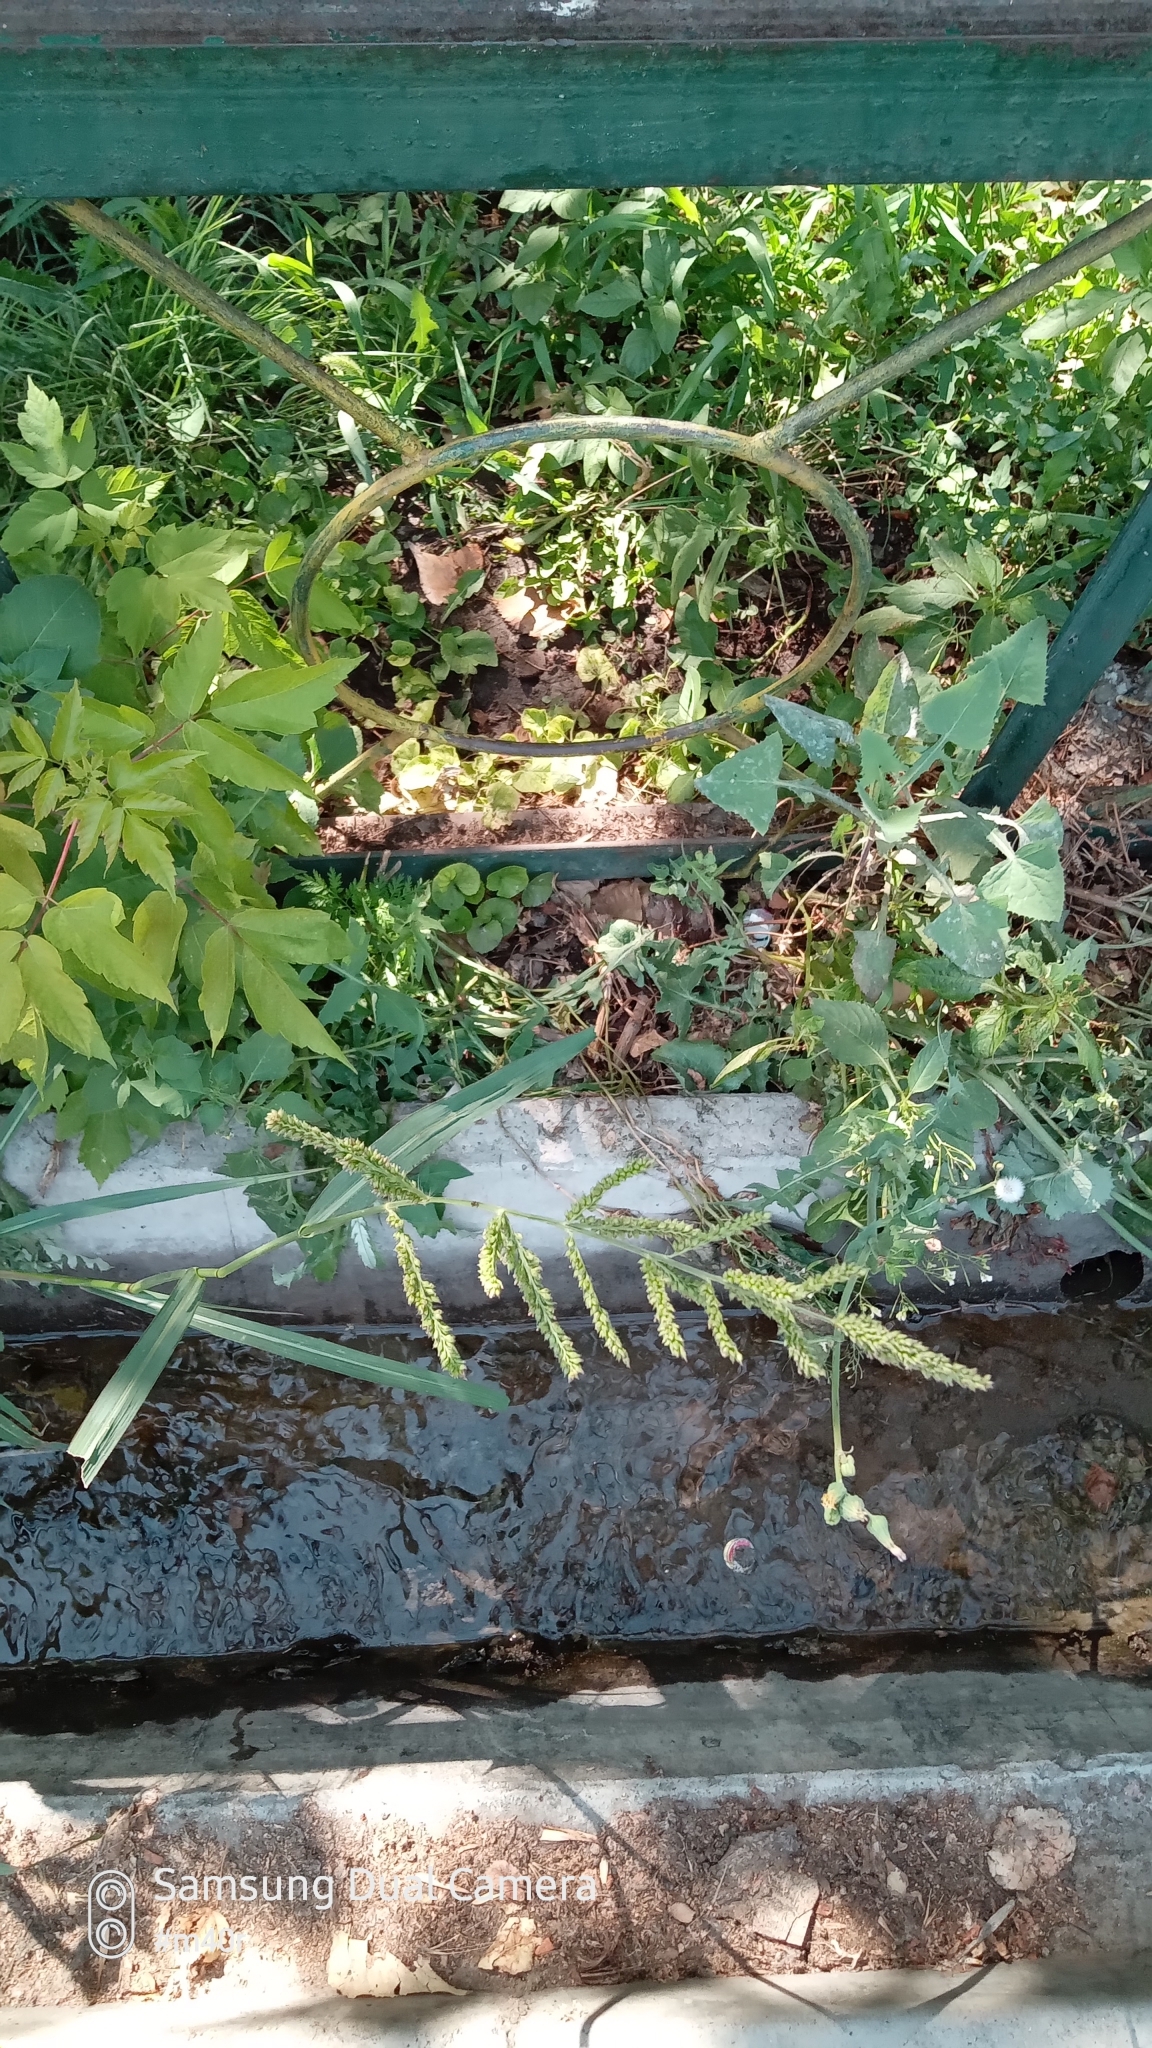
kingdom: Plantae
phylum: Tracheophyta
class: Liliopsida
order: Poales
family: Poaceae
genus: Echinochloa
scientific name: Echinochloa crus-galli
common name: Cockspur
